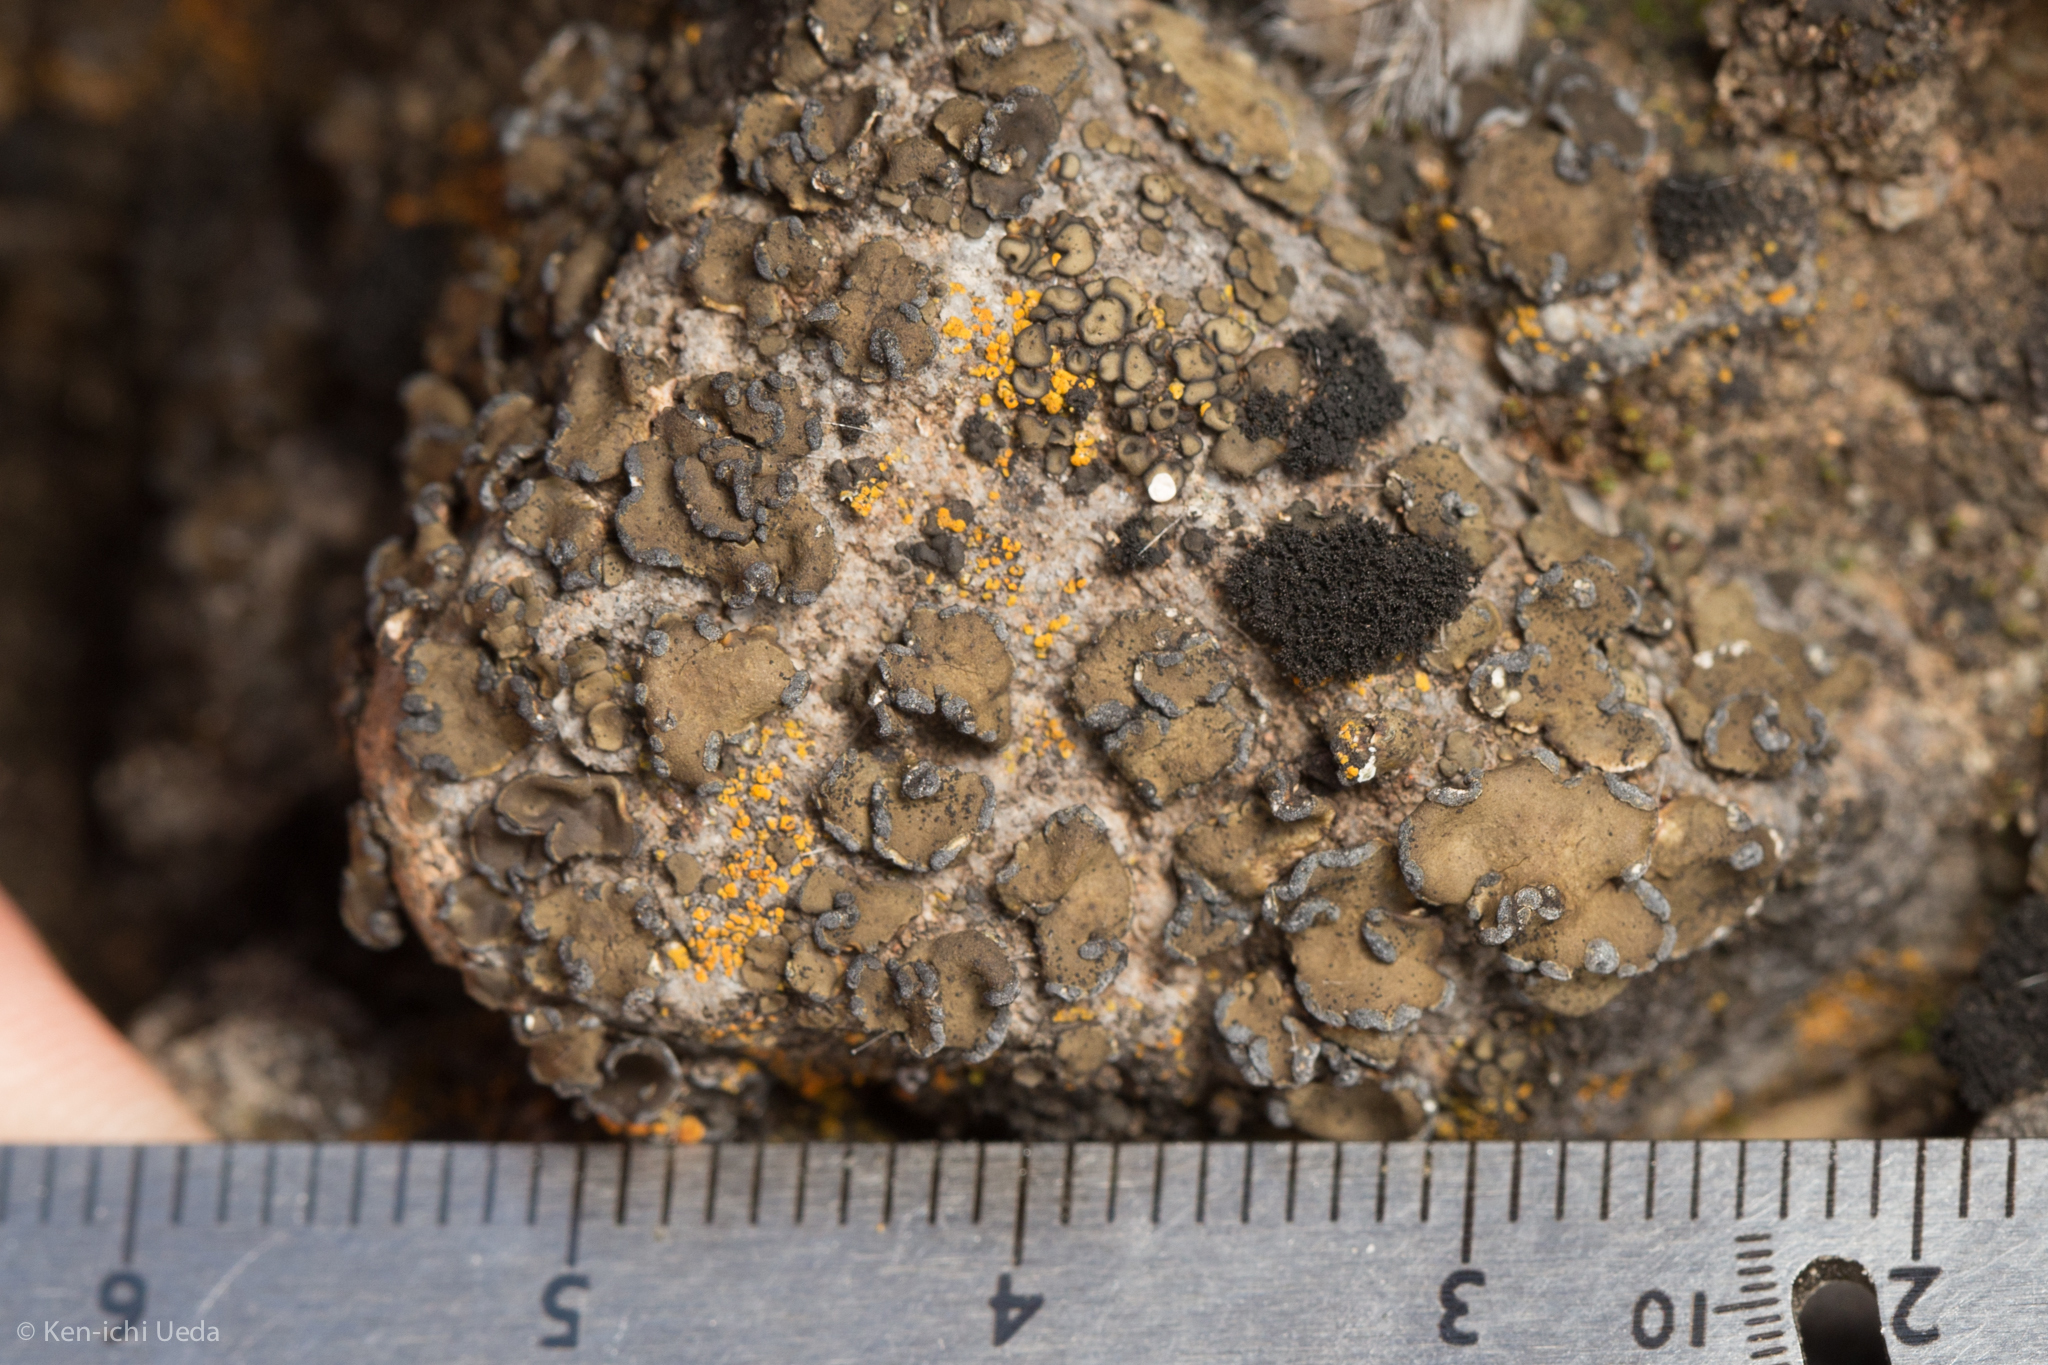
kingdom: Fungi
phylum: Ascomycota
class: Lichinomycetes
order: Lichinales
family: Peltulaceae
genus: Peltula
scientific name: Peltula euploca
